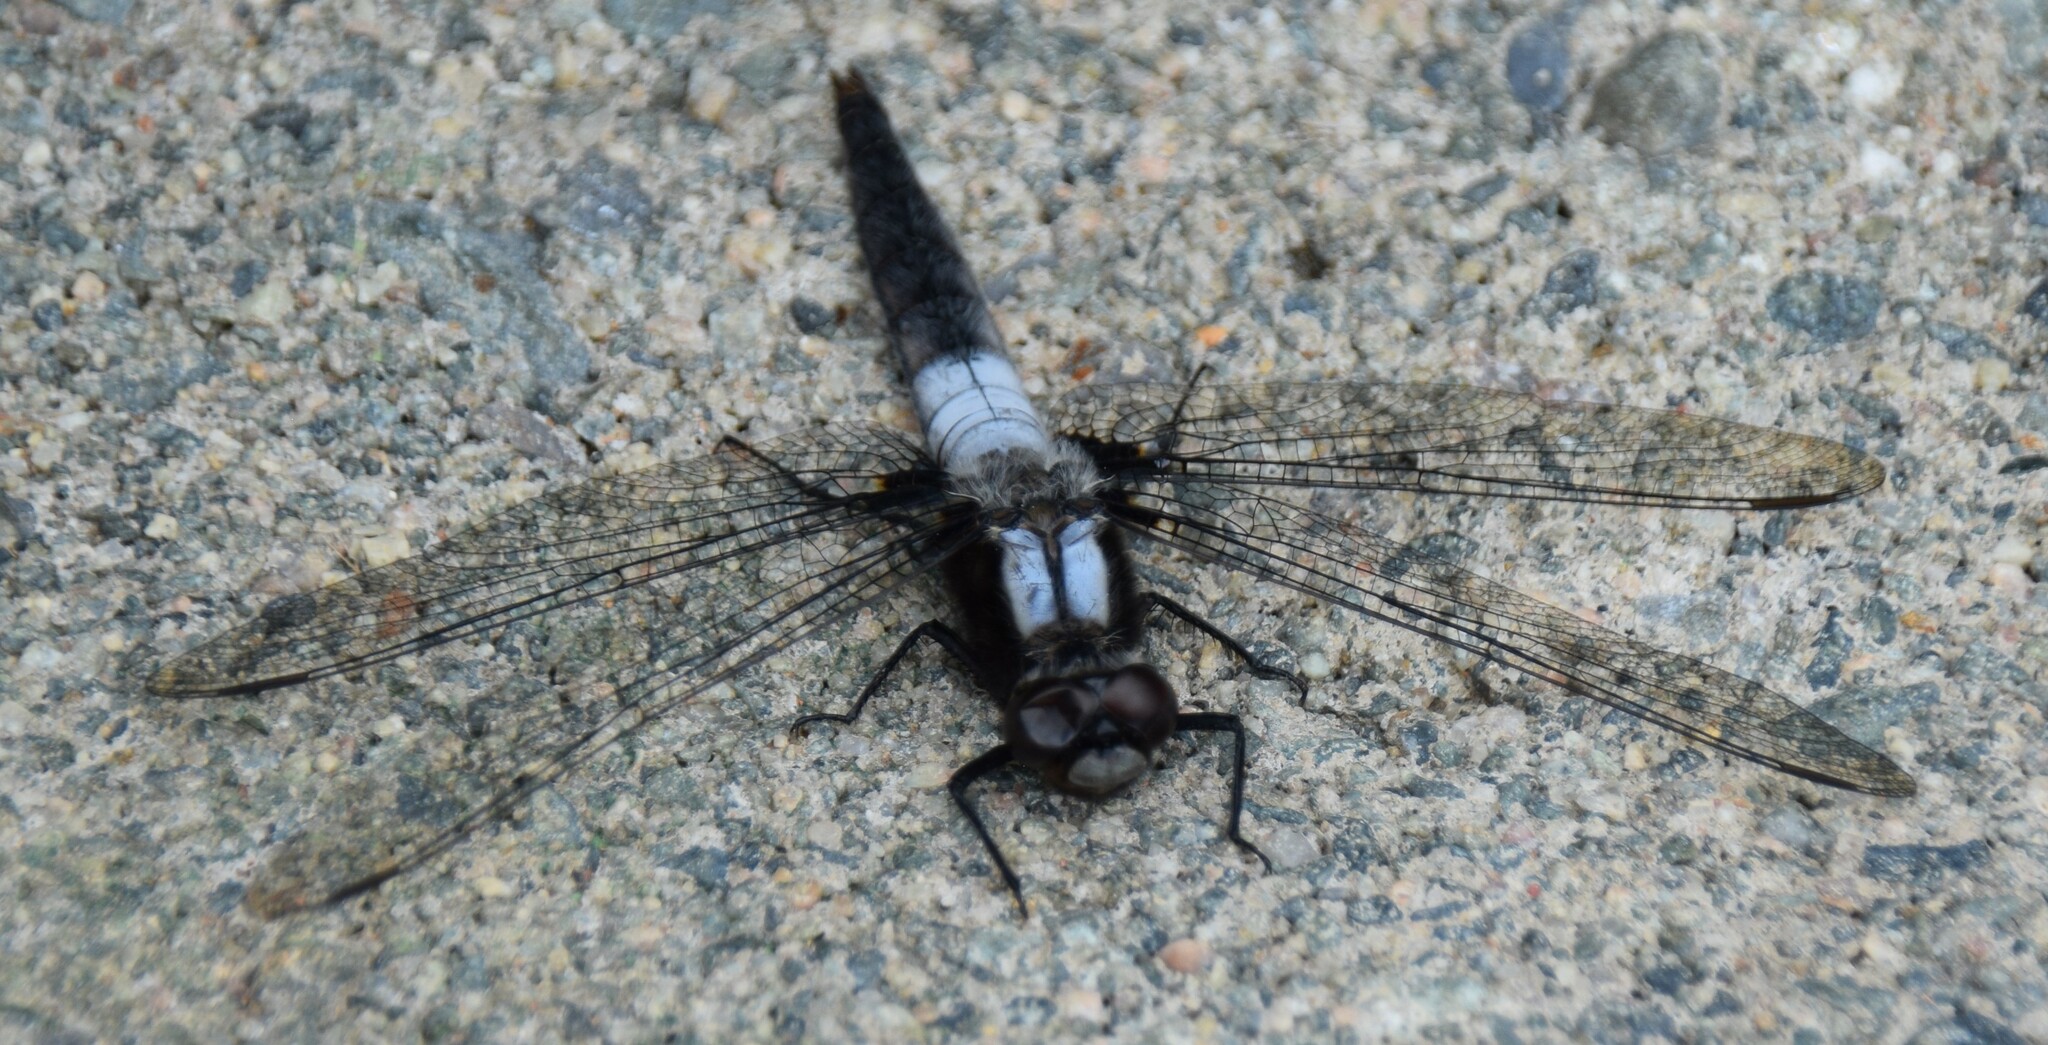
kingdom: Animalia
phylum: Arthropoda
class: Insecta
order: Odonata
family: Libellulidae
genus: Ladona
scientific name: Ladona julia
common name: Chalk-fronted corporal
